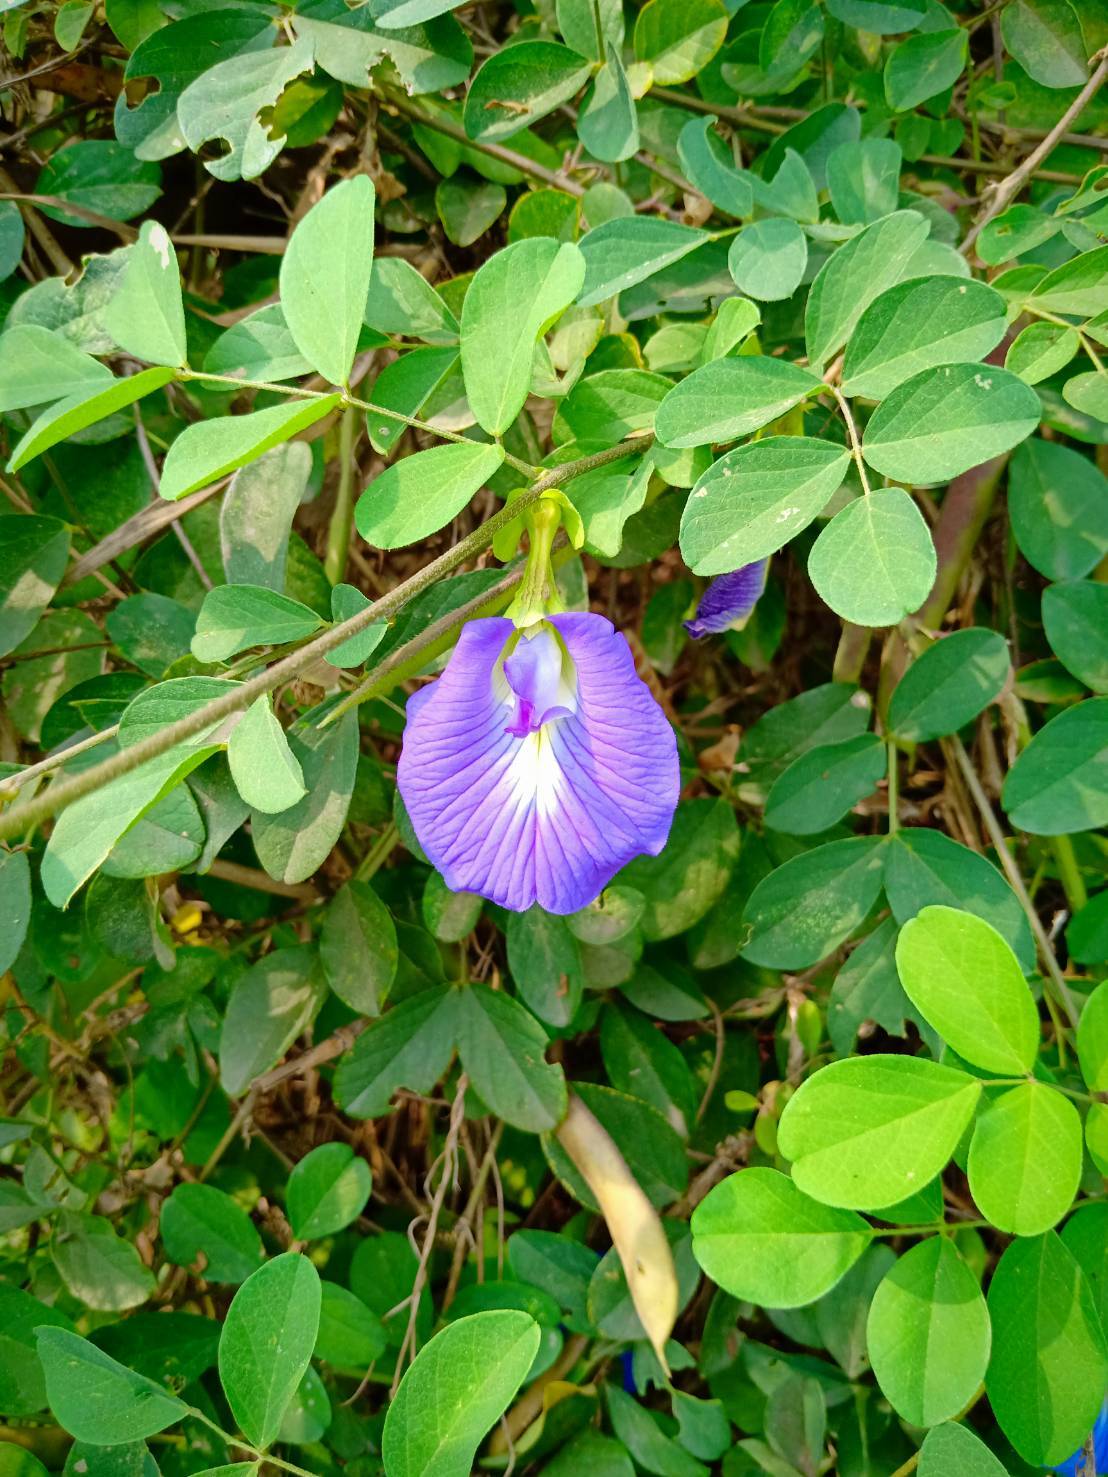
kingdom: Plantae
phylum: Tracheophyta
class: Magnoliopsida
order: Fabales
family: Fabaceae
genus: Clitoria
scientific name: Clitoria ternatea
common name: Asian pigeonwings
